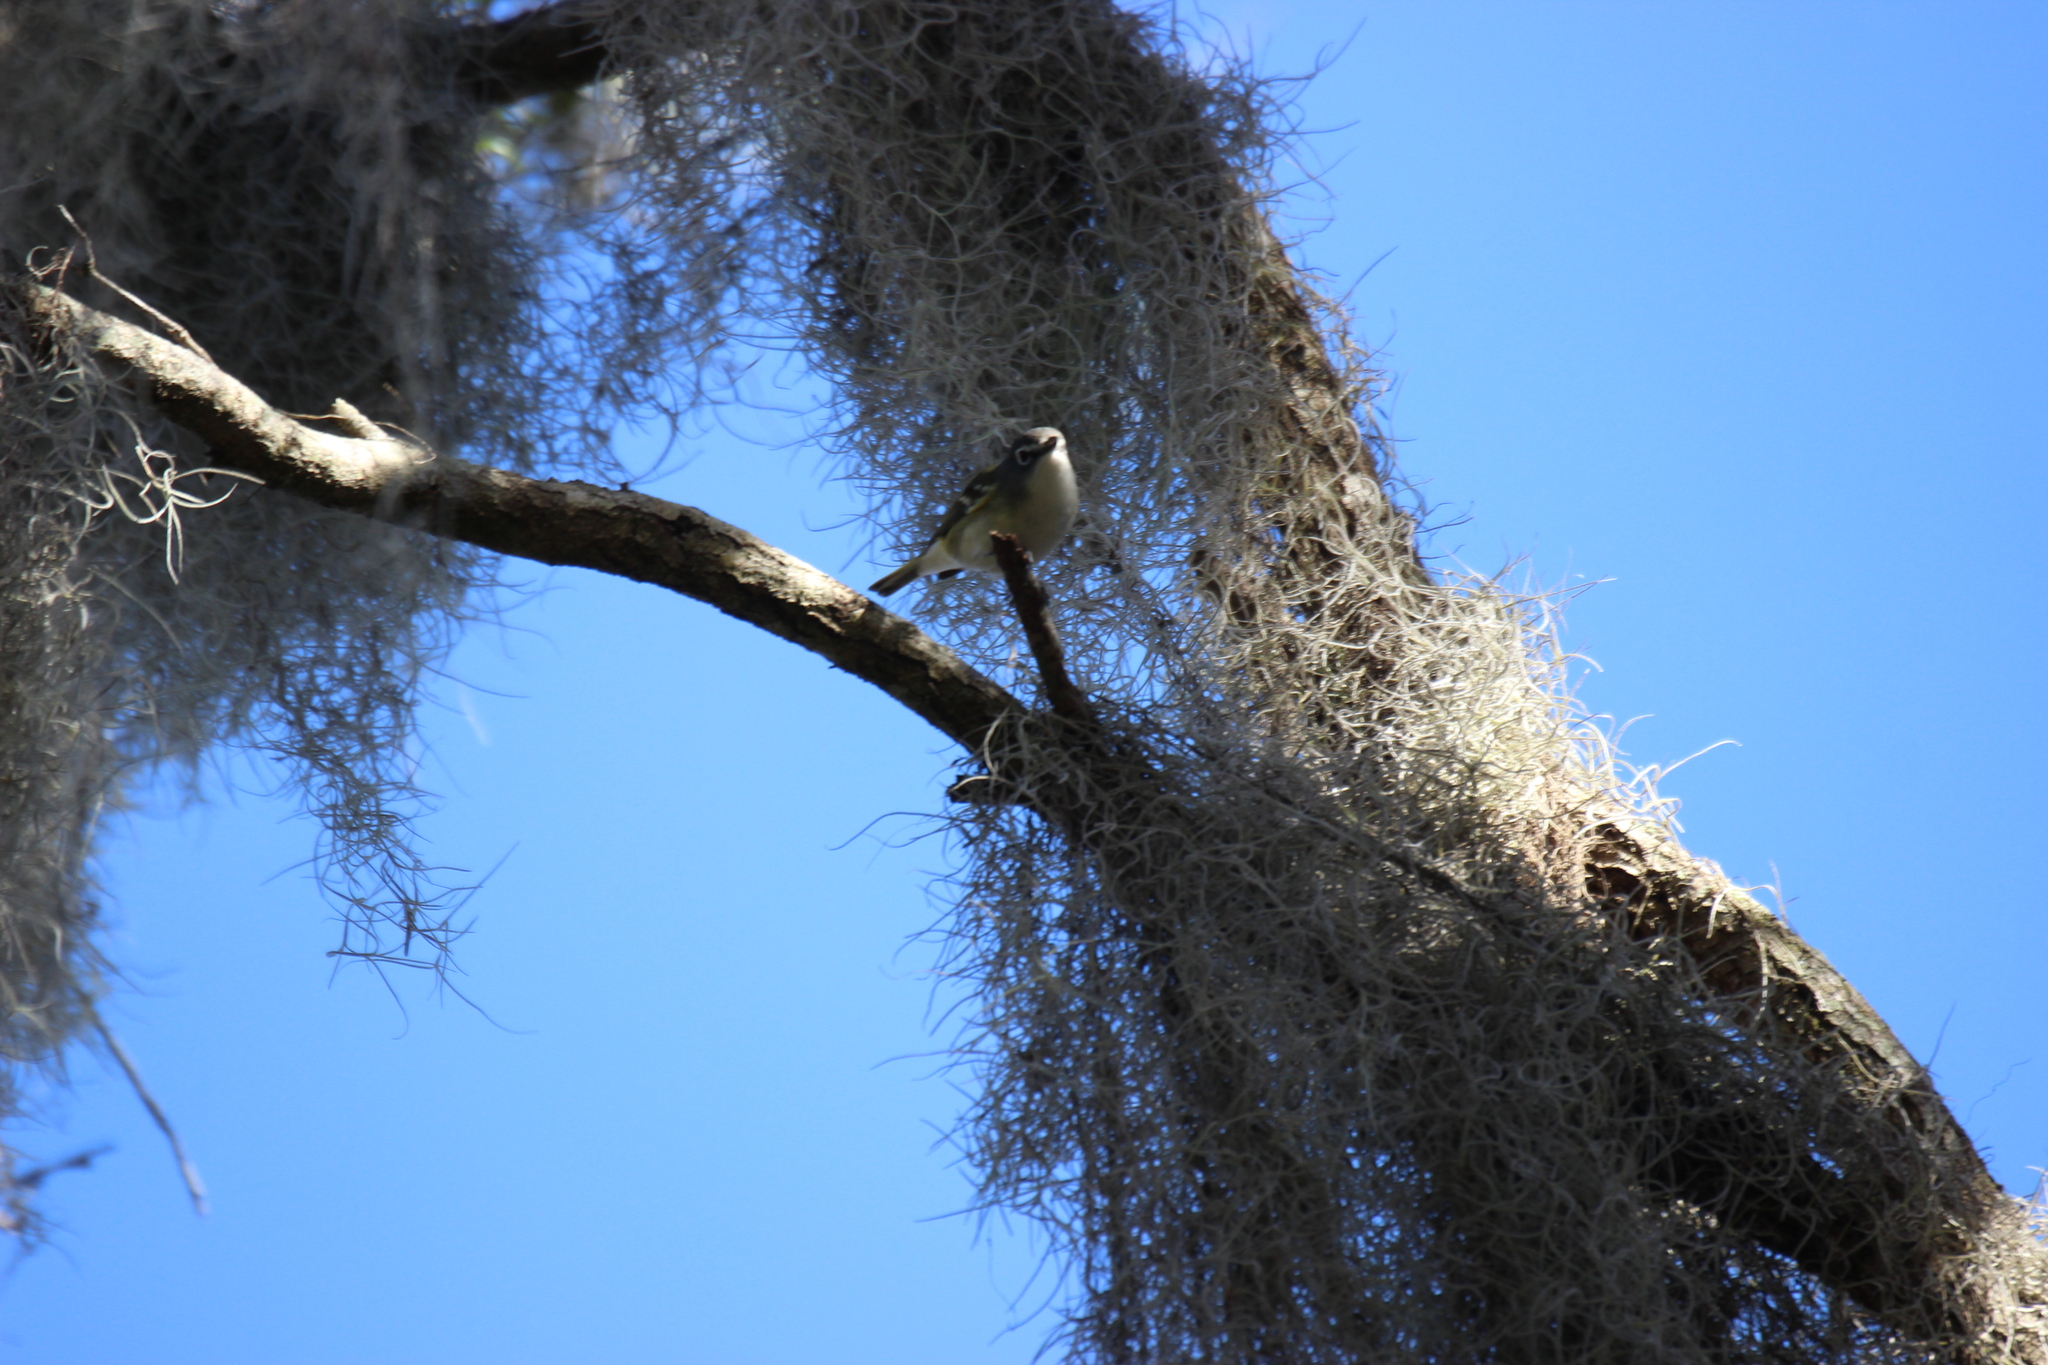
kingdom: Animalia
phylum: Chordata
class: Aves
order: Passeriformes
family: Vireonidae
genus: Vireo
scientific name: Vireo solitarius
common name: Blue-headed vireo
